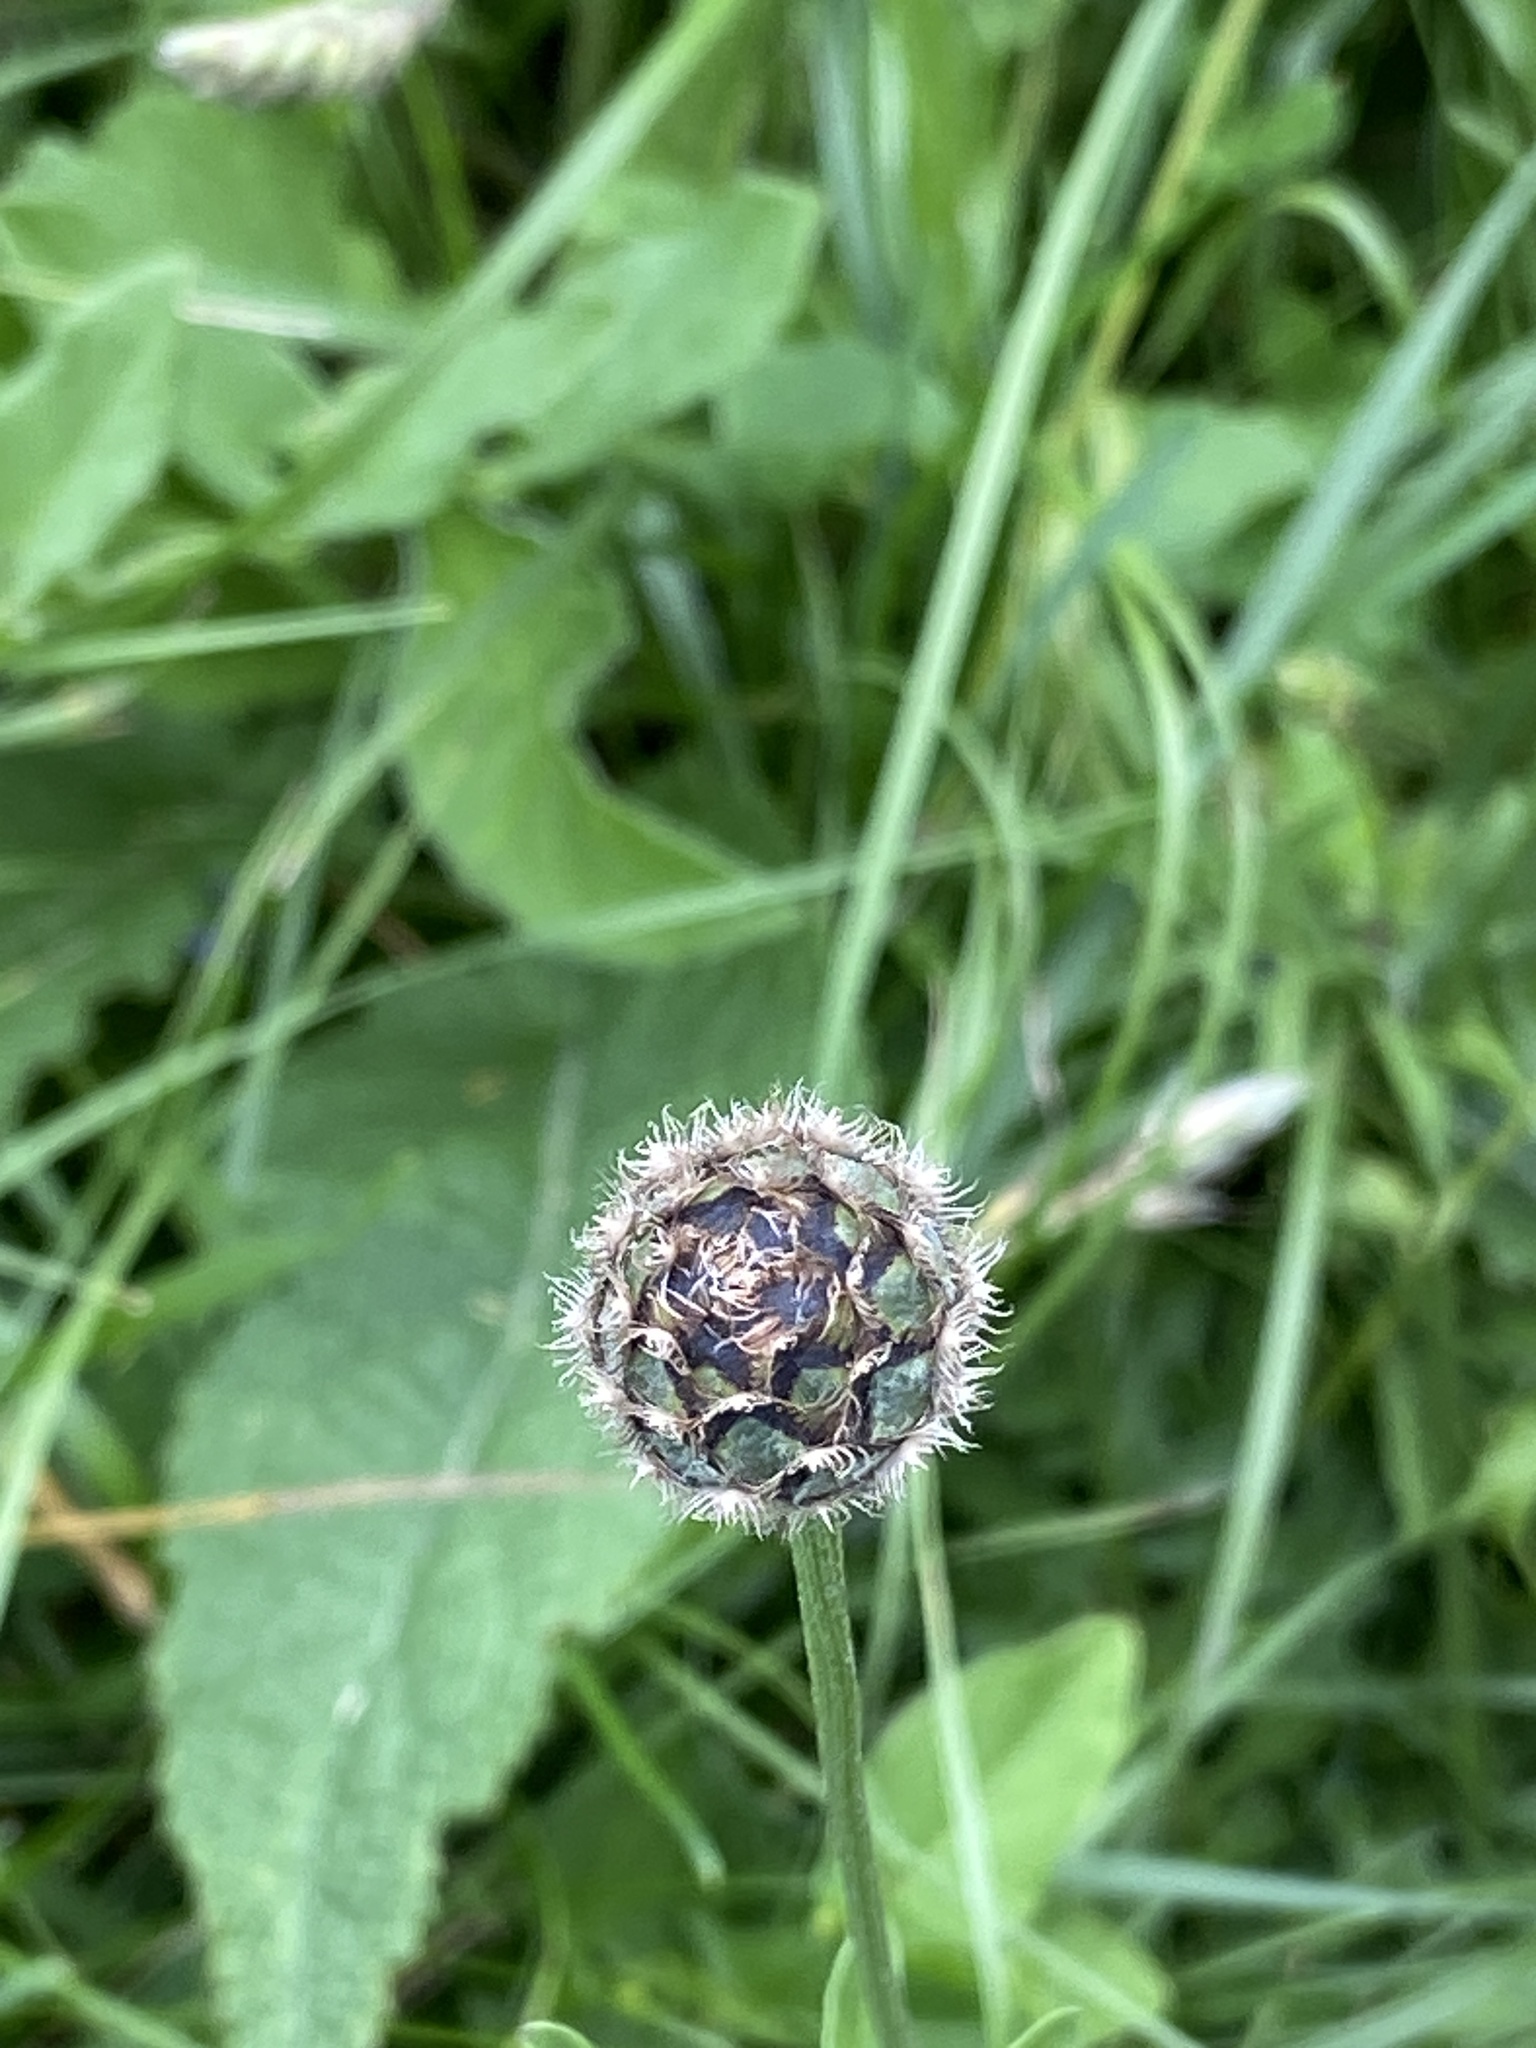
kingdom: Plantae
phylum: Tracheophyta
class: Magnoliopsida
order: Asterales
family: Asteraceae
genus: Centaurea
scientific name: Centaurea scabiosa
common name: Greater knapweed
